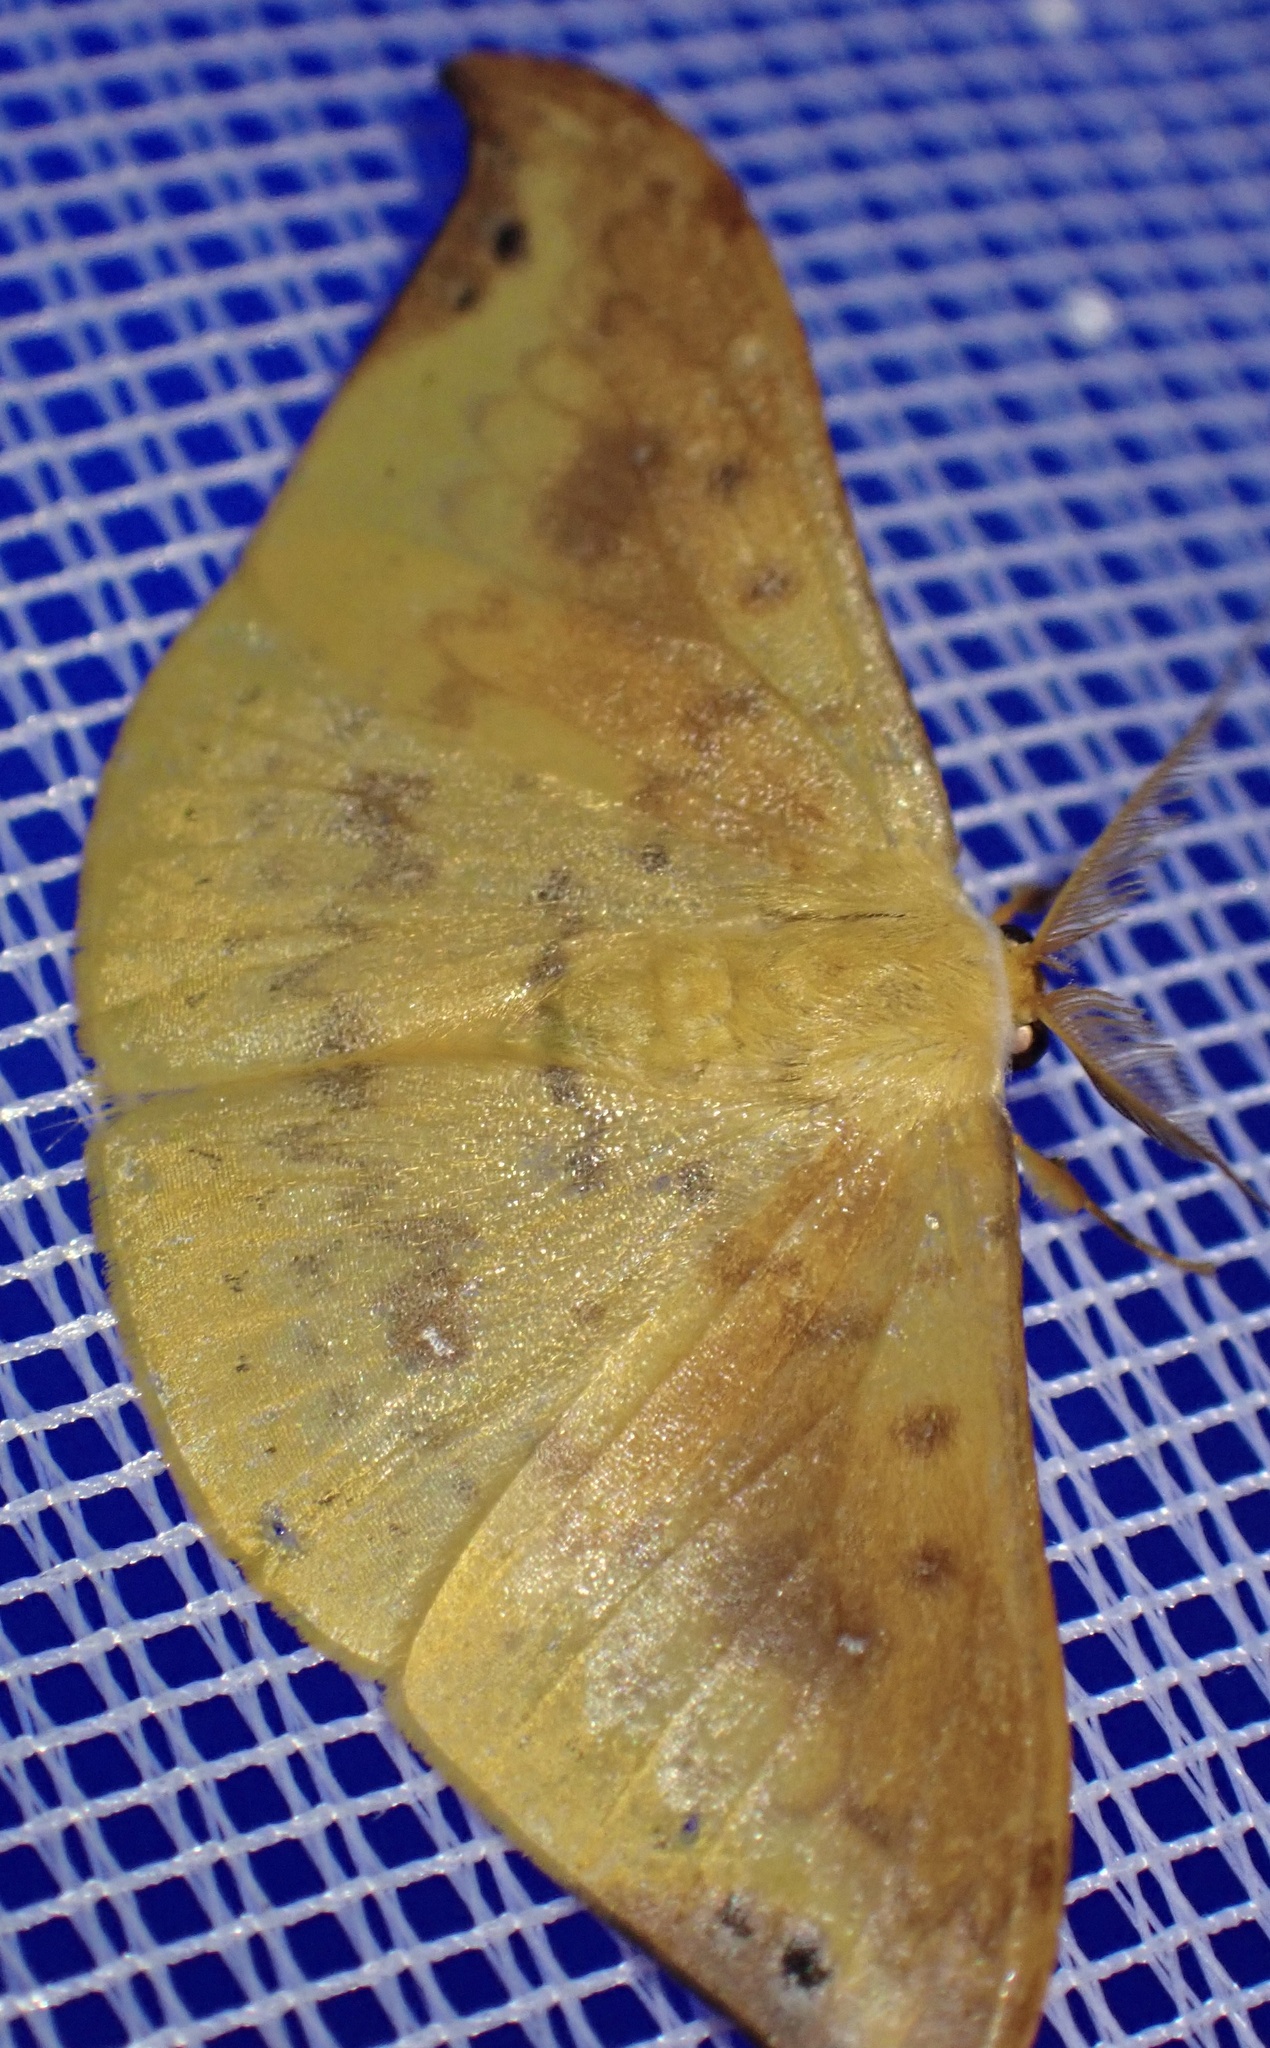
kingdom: Animalia
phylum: Arthropoda
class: Insecta
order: Lepidoptera
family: Drepanidae
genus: Tridrepana
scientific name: Tridrepana examplata
